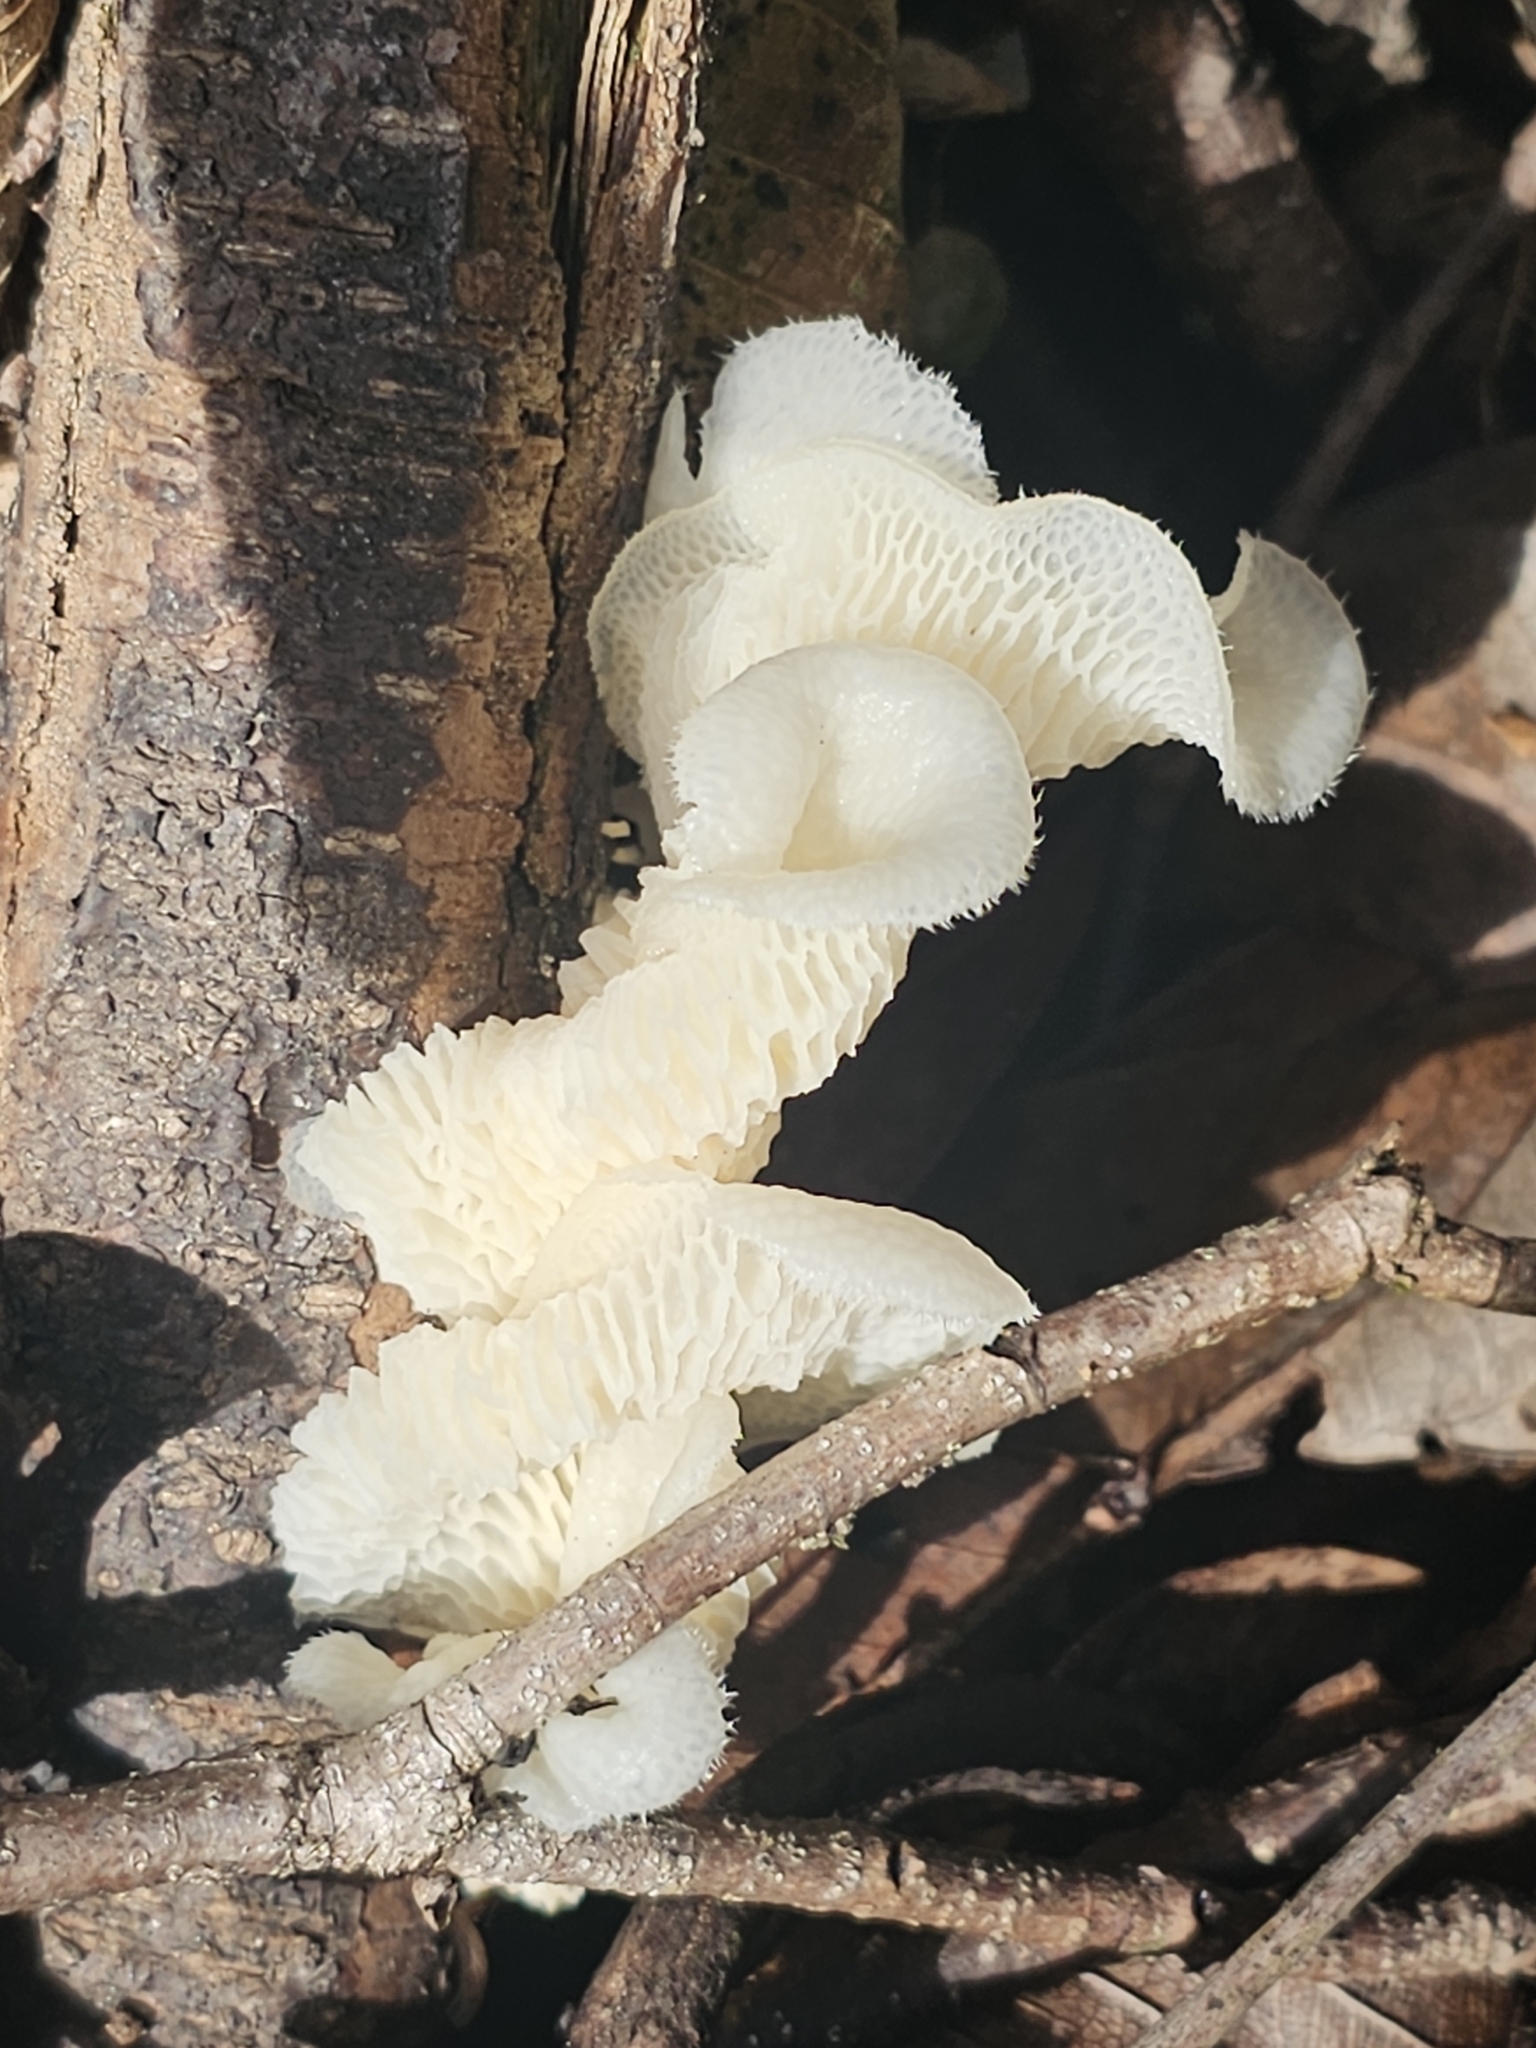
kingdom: Fungi
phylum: Basidiomycota
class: Agaricomycetes
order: Polyporales
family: Polyporaceae
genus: Favolus
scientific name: Favolus tenuiculus
